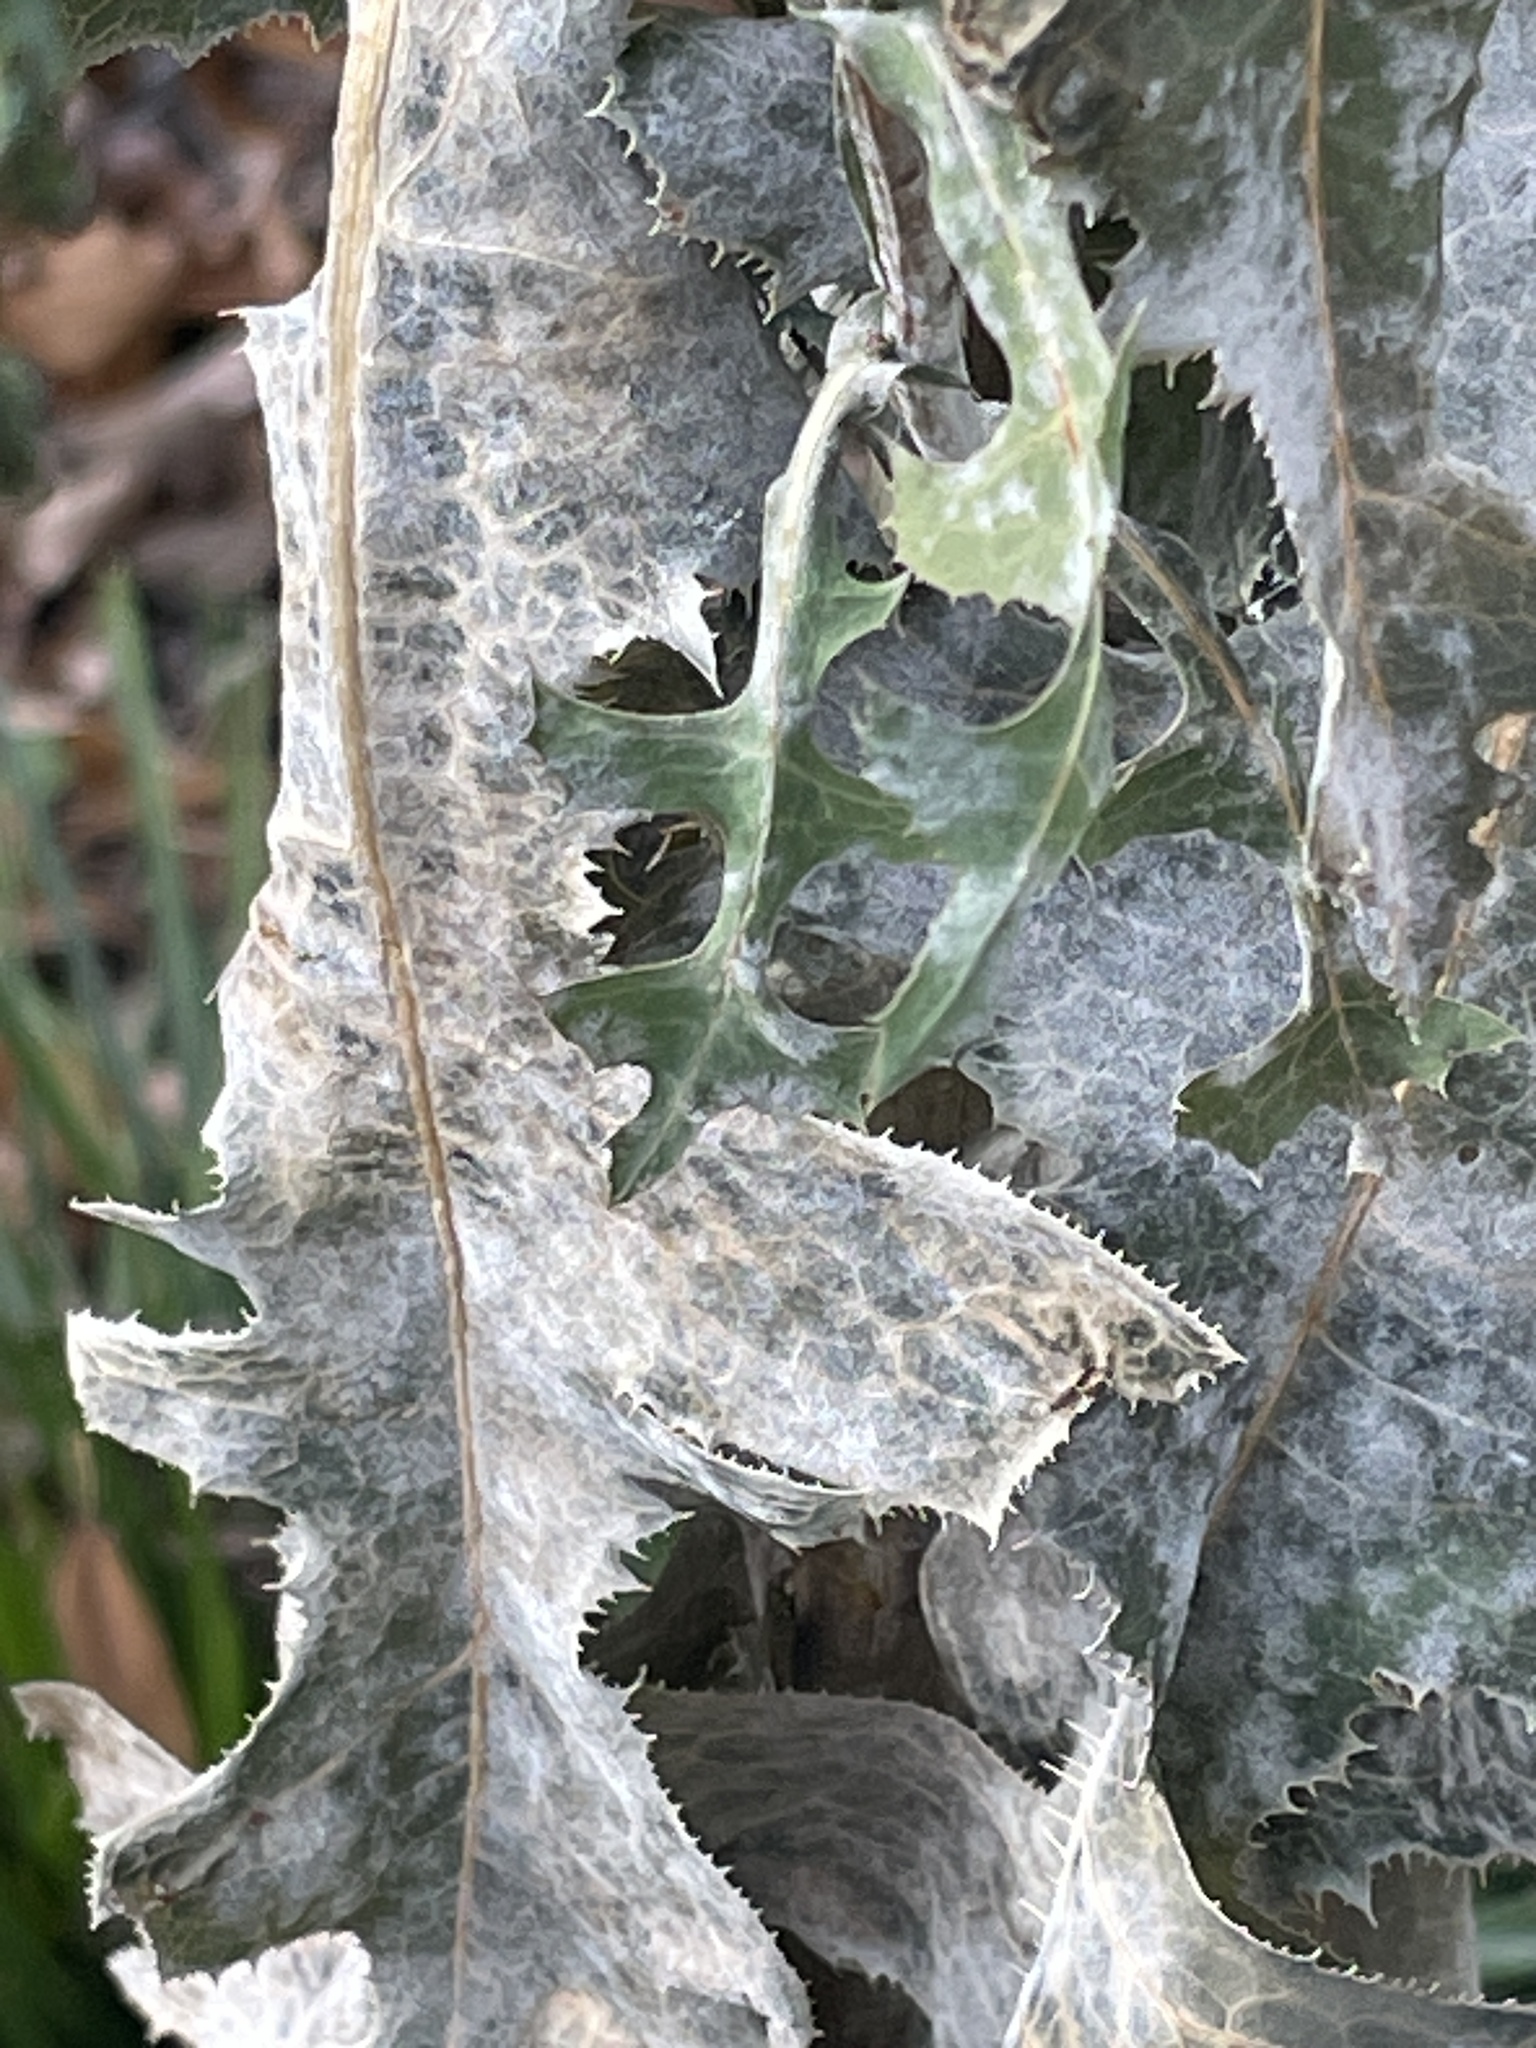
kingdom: Fungi
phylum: Ascomycota
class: Leotiomycetes
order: Helotiales
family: Erysiphaceae
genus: Golovinomyces
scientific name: Golovinomyces bolayi
